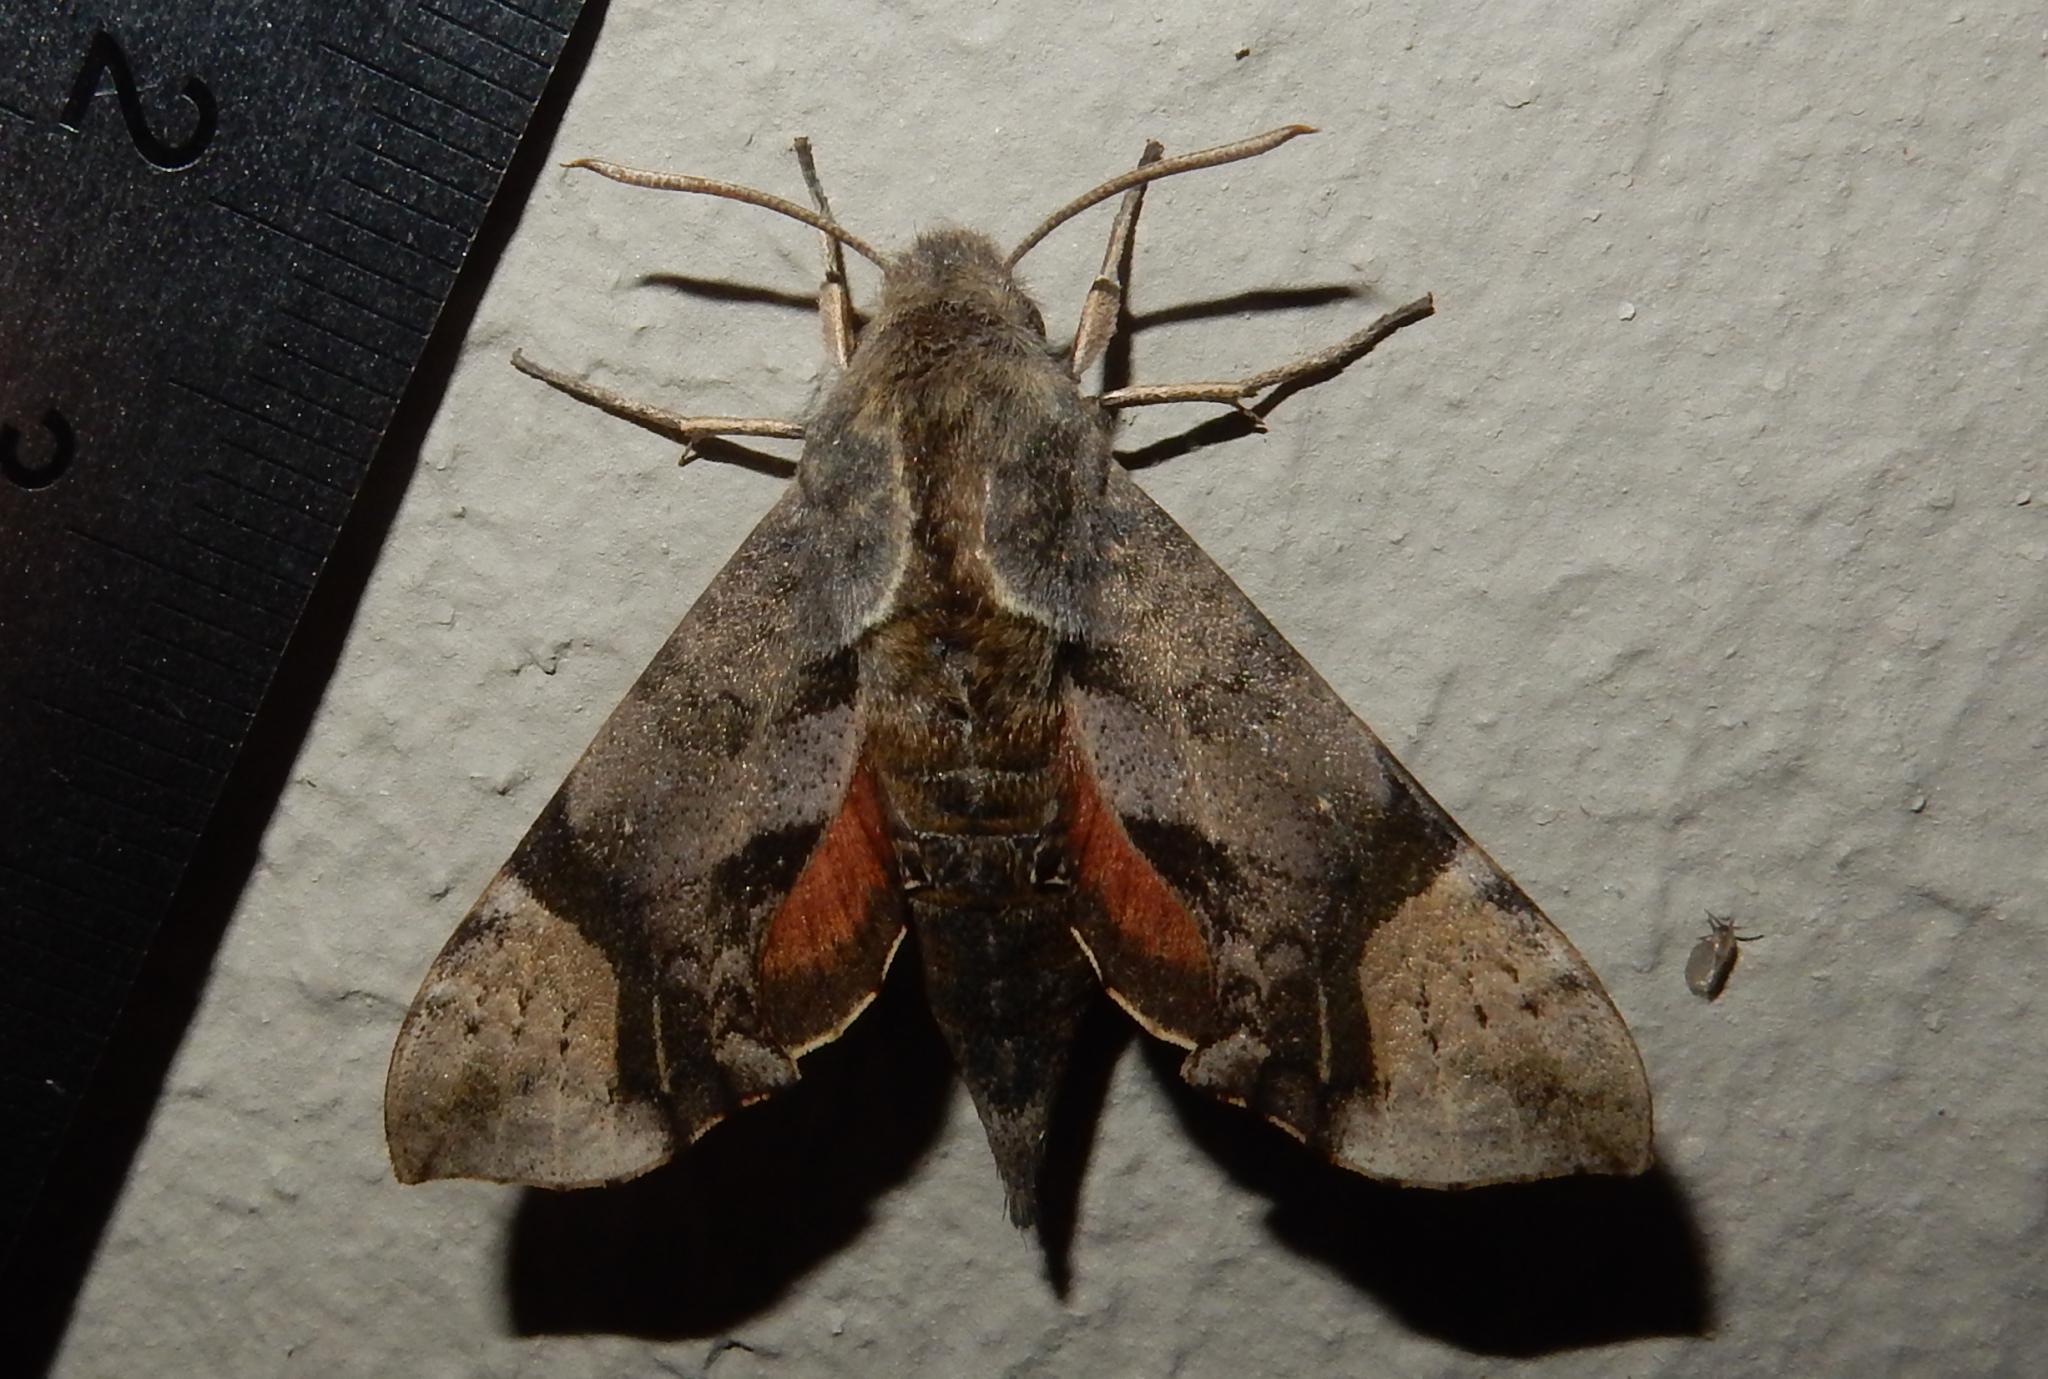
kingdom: Animalia
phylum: Arthropoda
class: Insecta
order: Lepidoptera
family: Sphingidae
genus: Temnora
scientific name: Temnora inornatum
